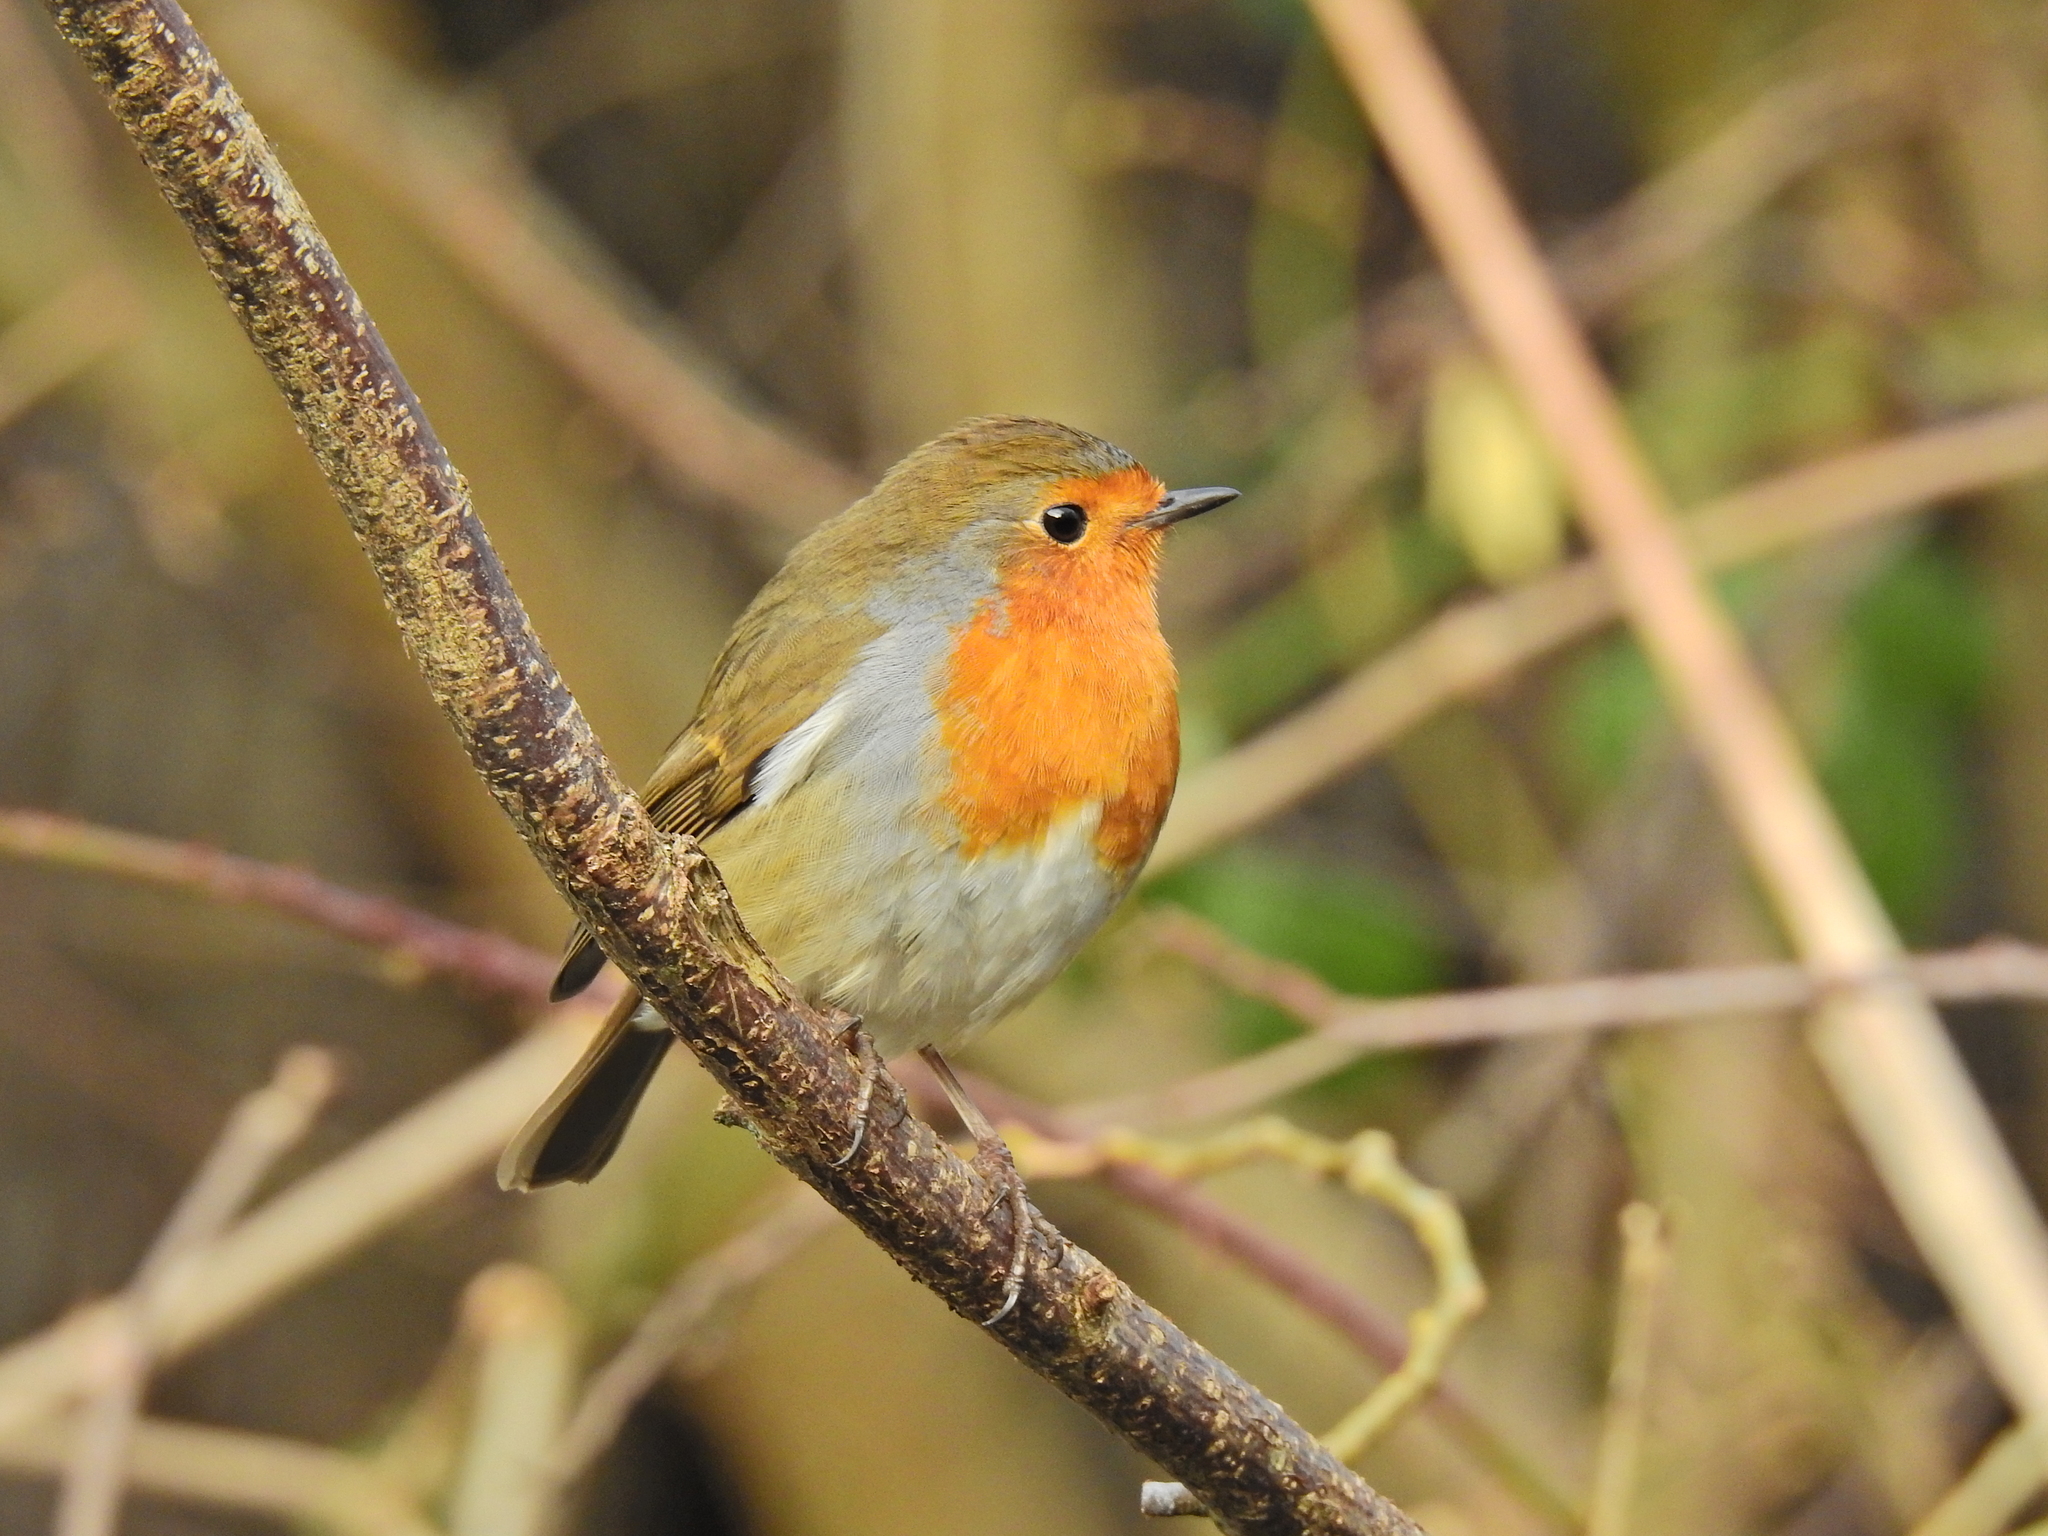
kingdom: Animalia
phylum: Chordata
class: Aves
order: Passeriformes
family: Muscicapidae
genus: Erithacus
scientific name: Erithacus rubecula
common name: European robin
